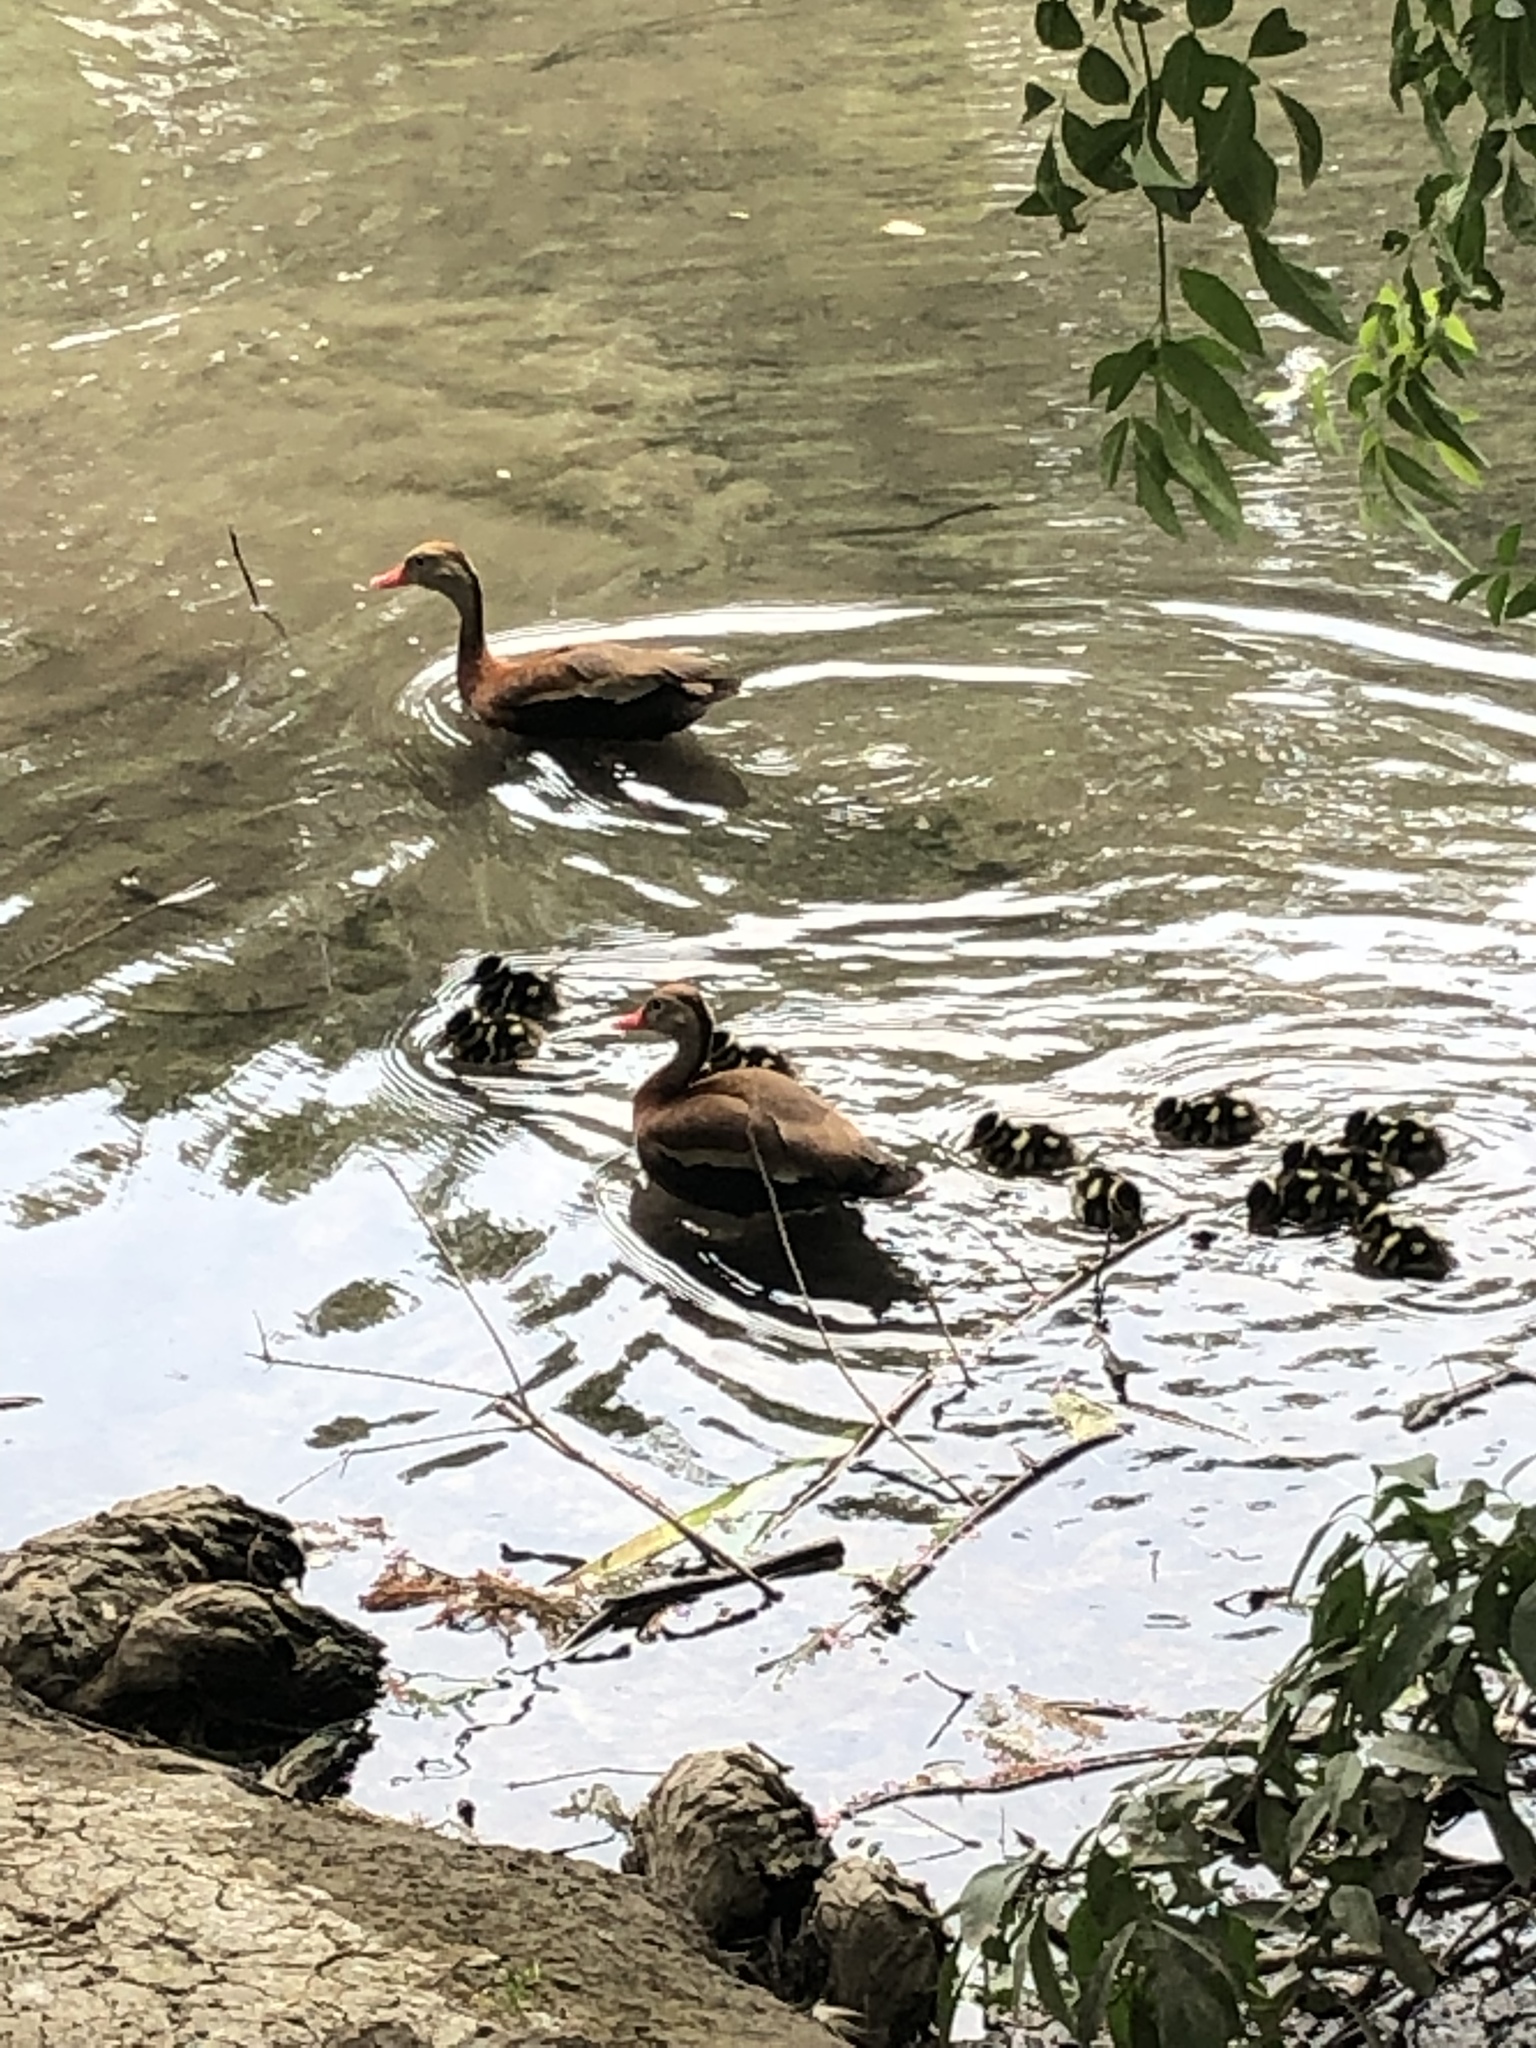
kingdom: Animalia
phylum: Chordata
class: Aves
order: Anseriformes
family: Anatidae
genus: Dendrocygna
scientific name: Dendrocygna autumnalis
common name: Black-bellied whistling duck
